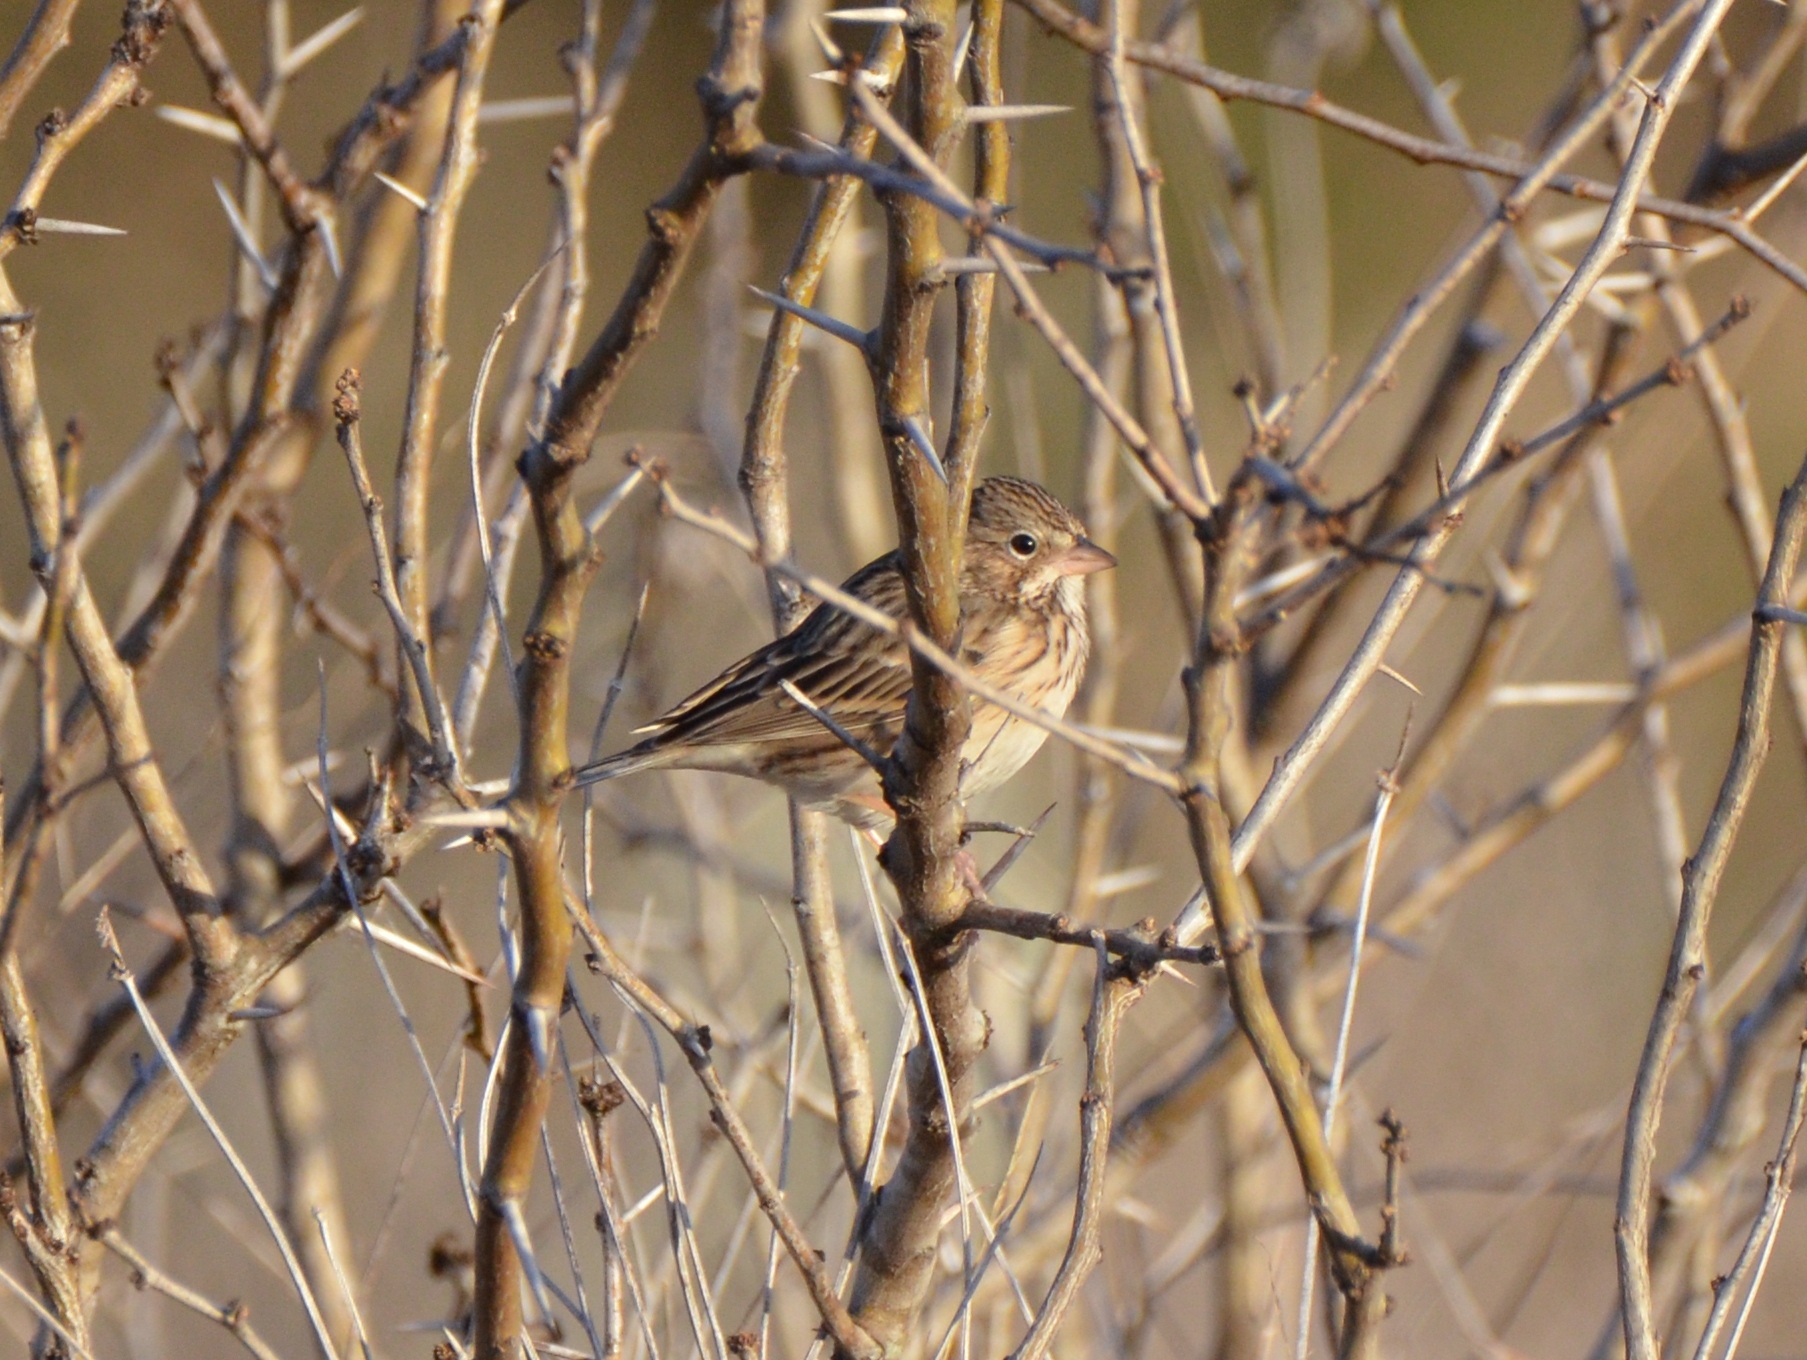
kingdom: Animalia
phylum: Chordata
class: Aves
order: Passeriformes
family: Passerellidae
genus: Pooecetes
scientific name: Pooecetes gramineus
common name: Vesper sparrow
